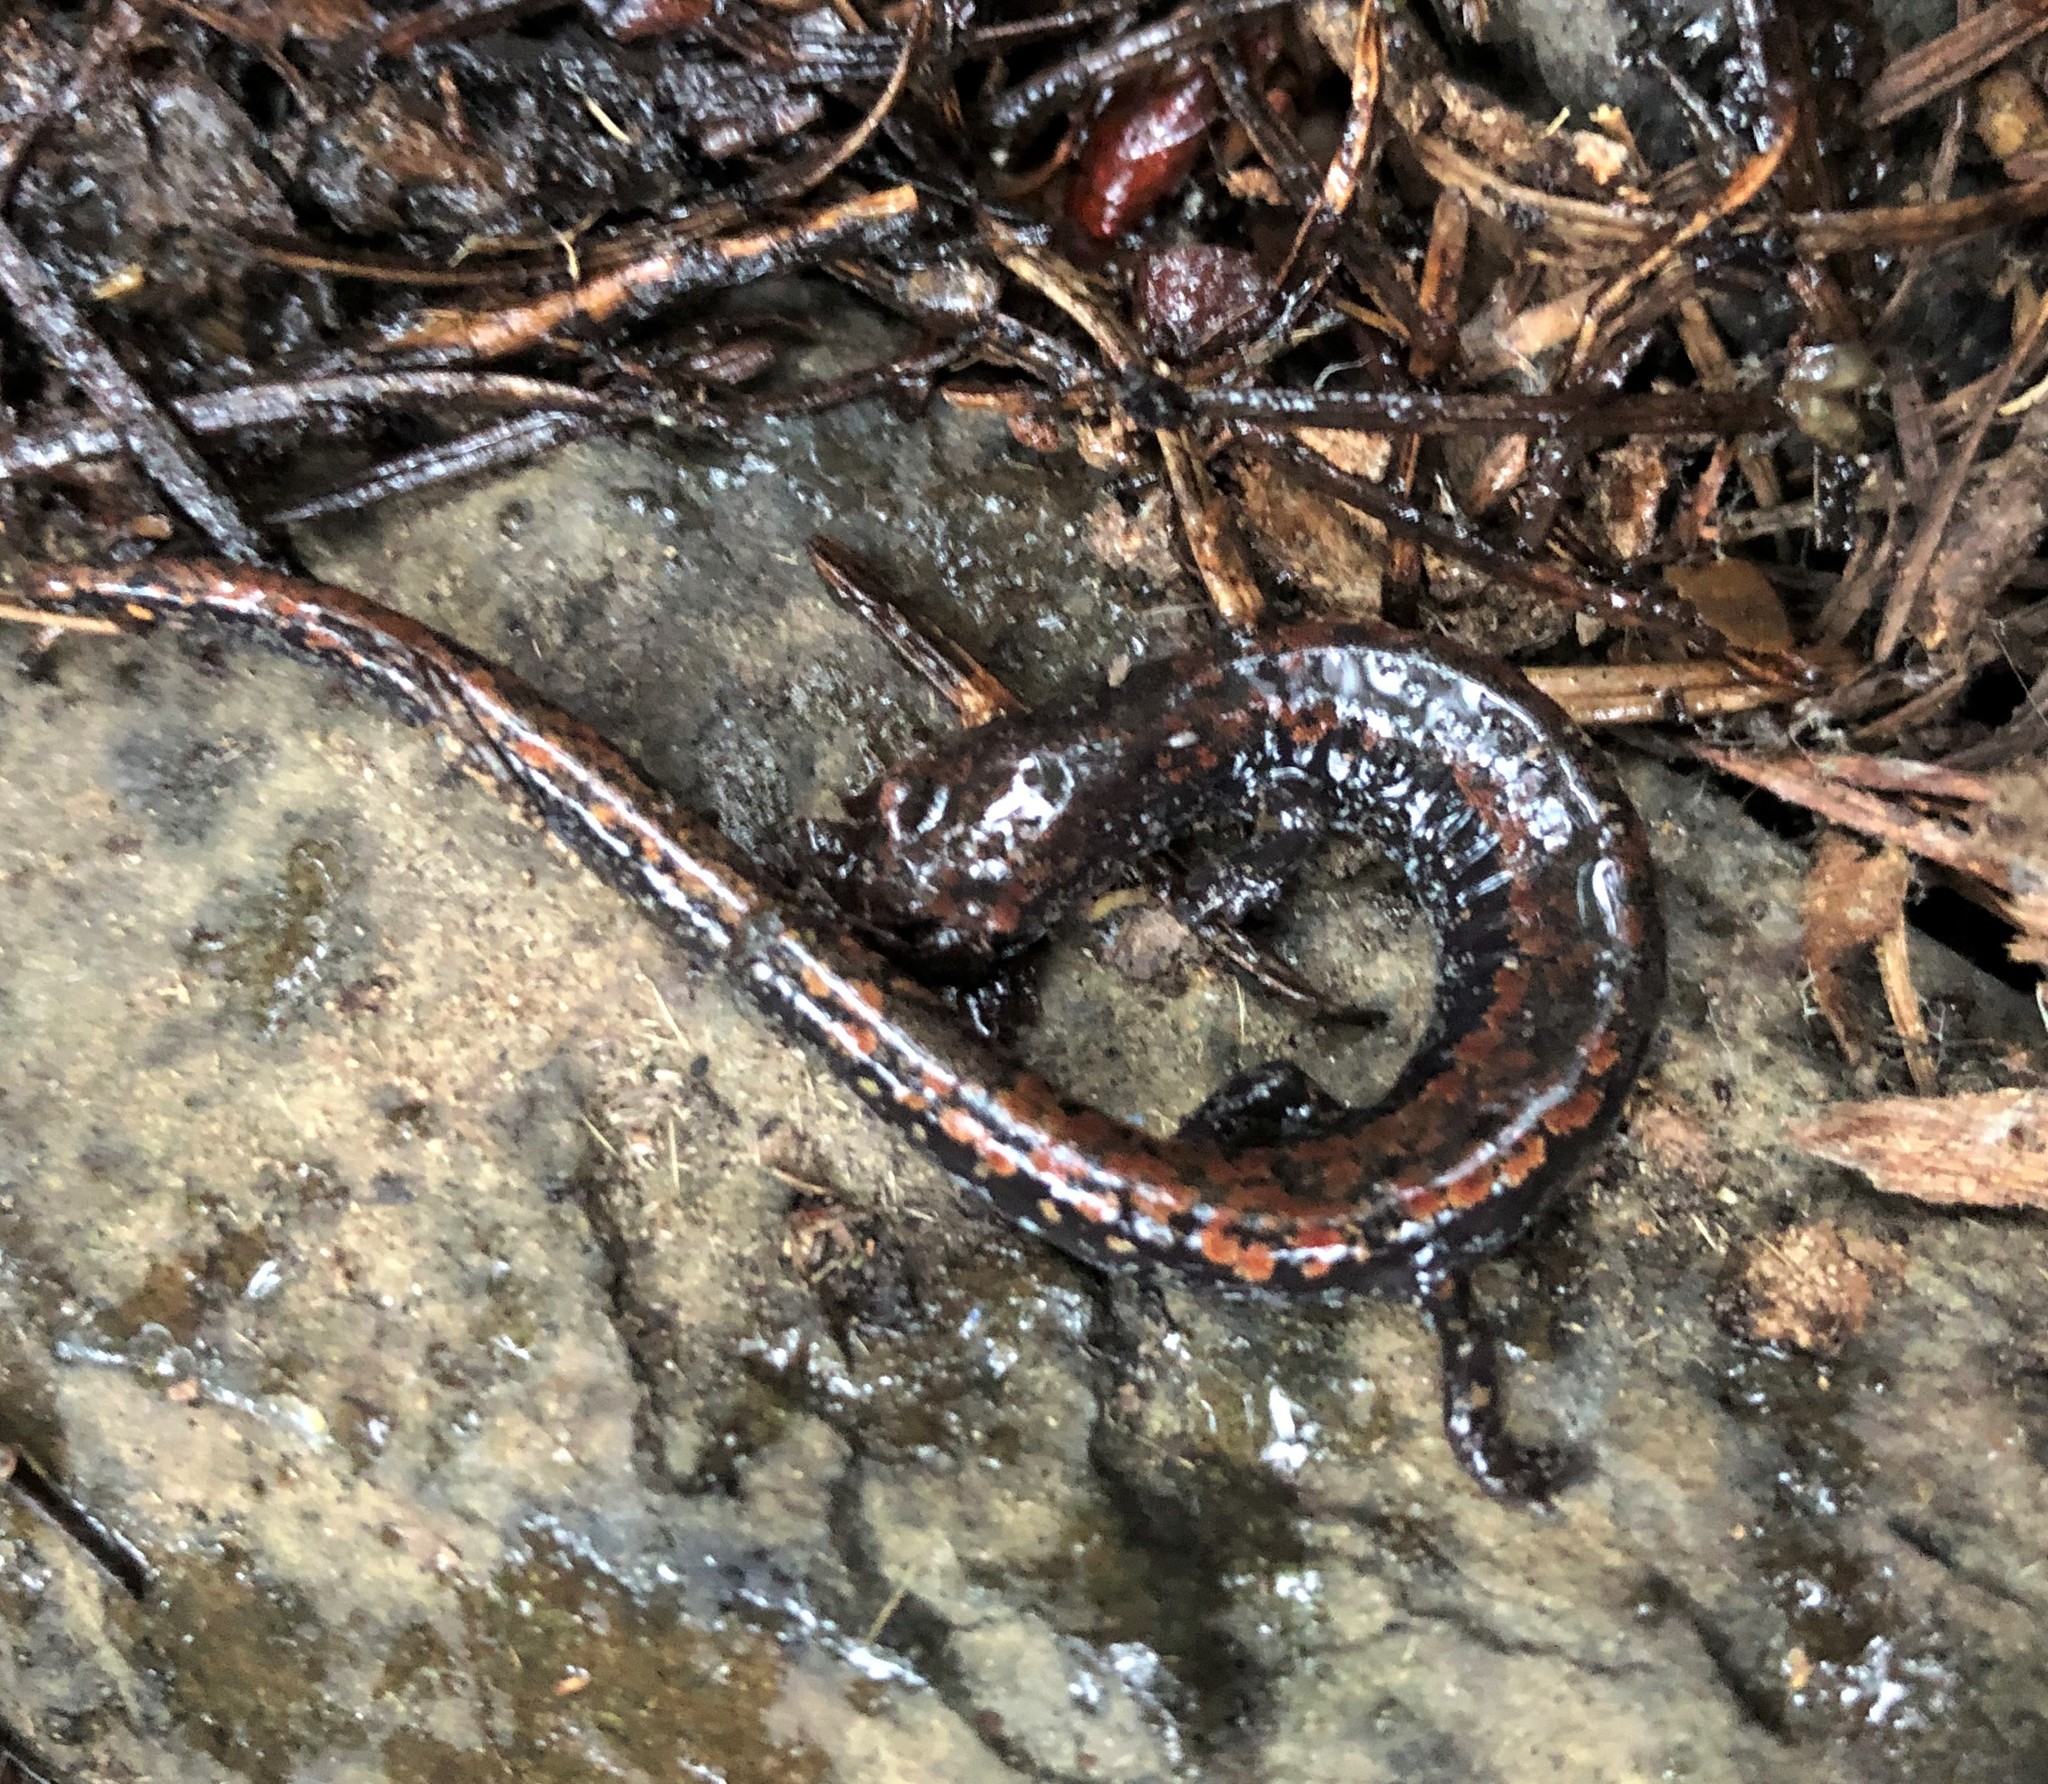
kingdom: Animalia
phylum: Chordata
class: Amphibia
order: Caudata
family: Plethodontidae
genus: Batrachoseps
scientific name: Batrachoseps wrighti
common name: Oregon slender salamander
